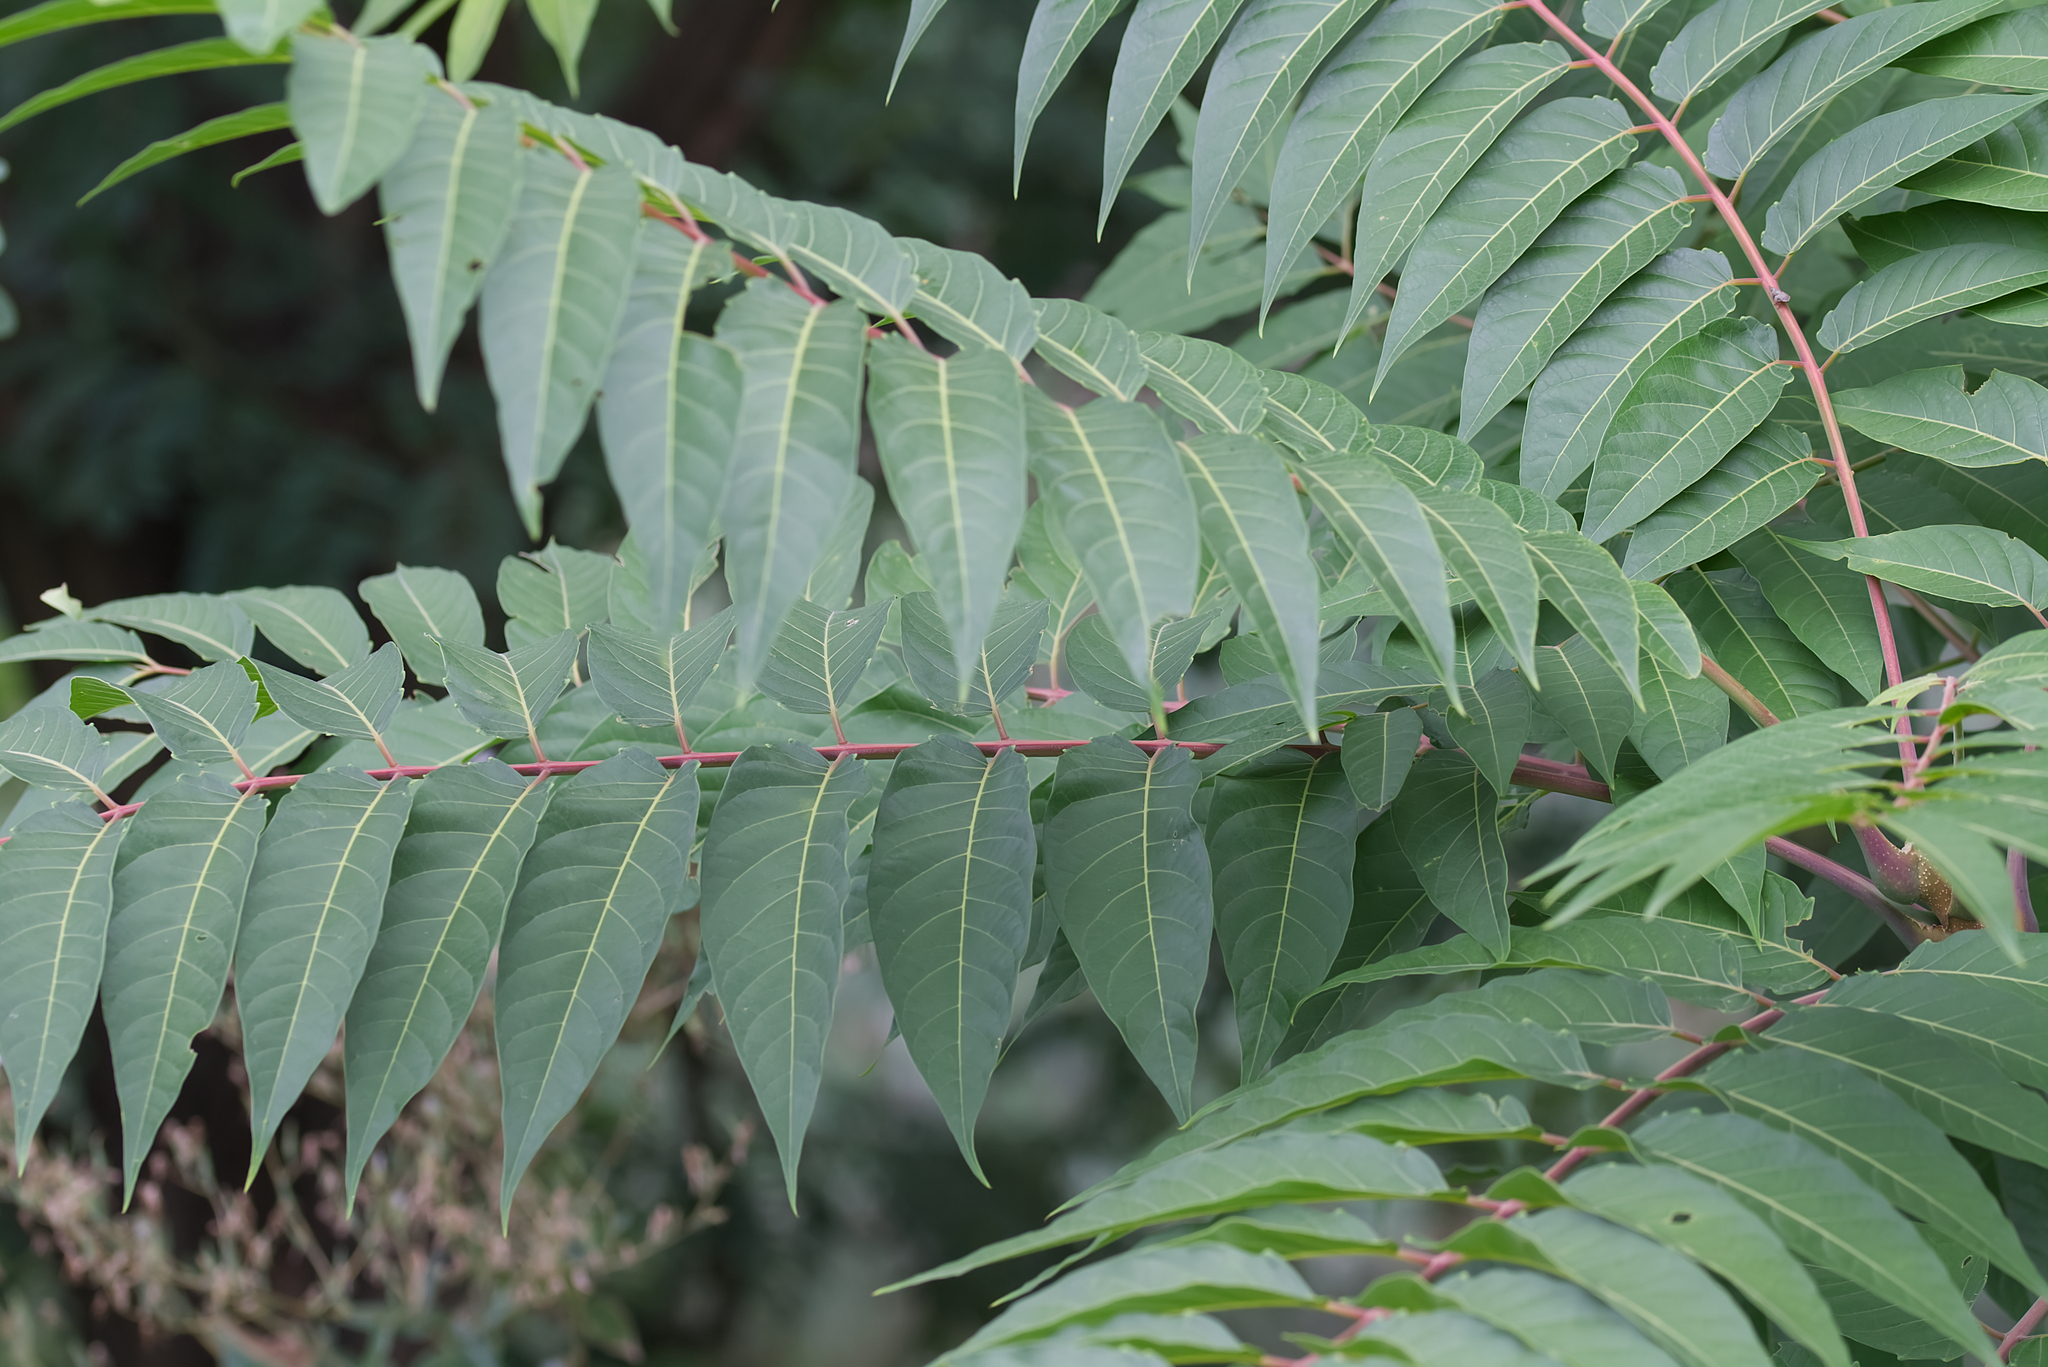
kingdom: Plantae
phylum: Tracheophyta
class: Magnoliopsida
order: Sapindales
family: Simaroubaceae
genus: Ailanthus
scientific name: Ailanthus altissima
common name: Tree-of-heaven
